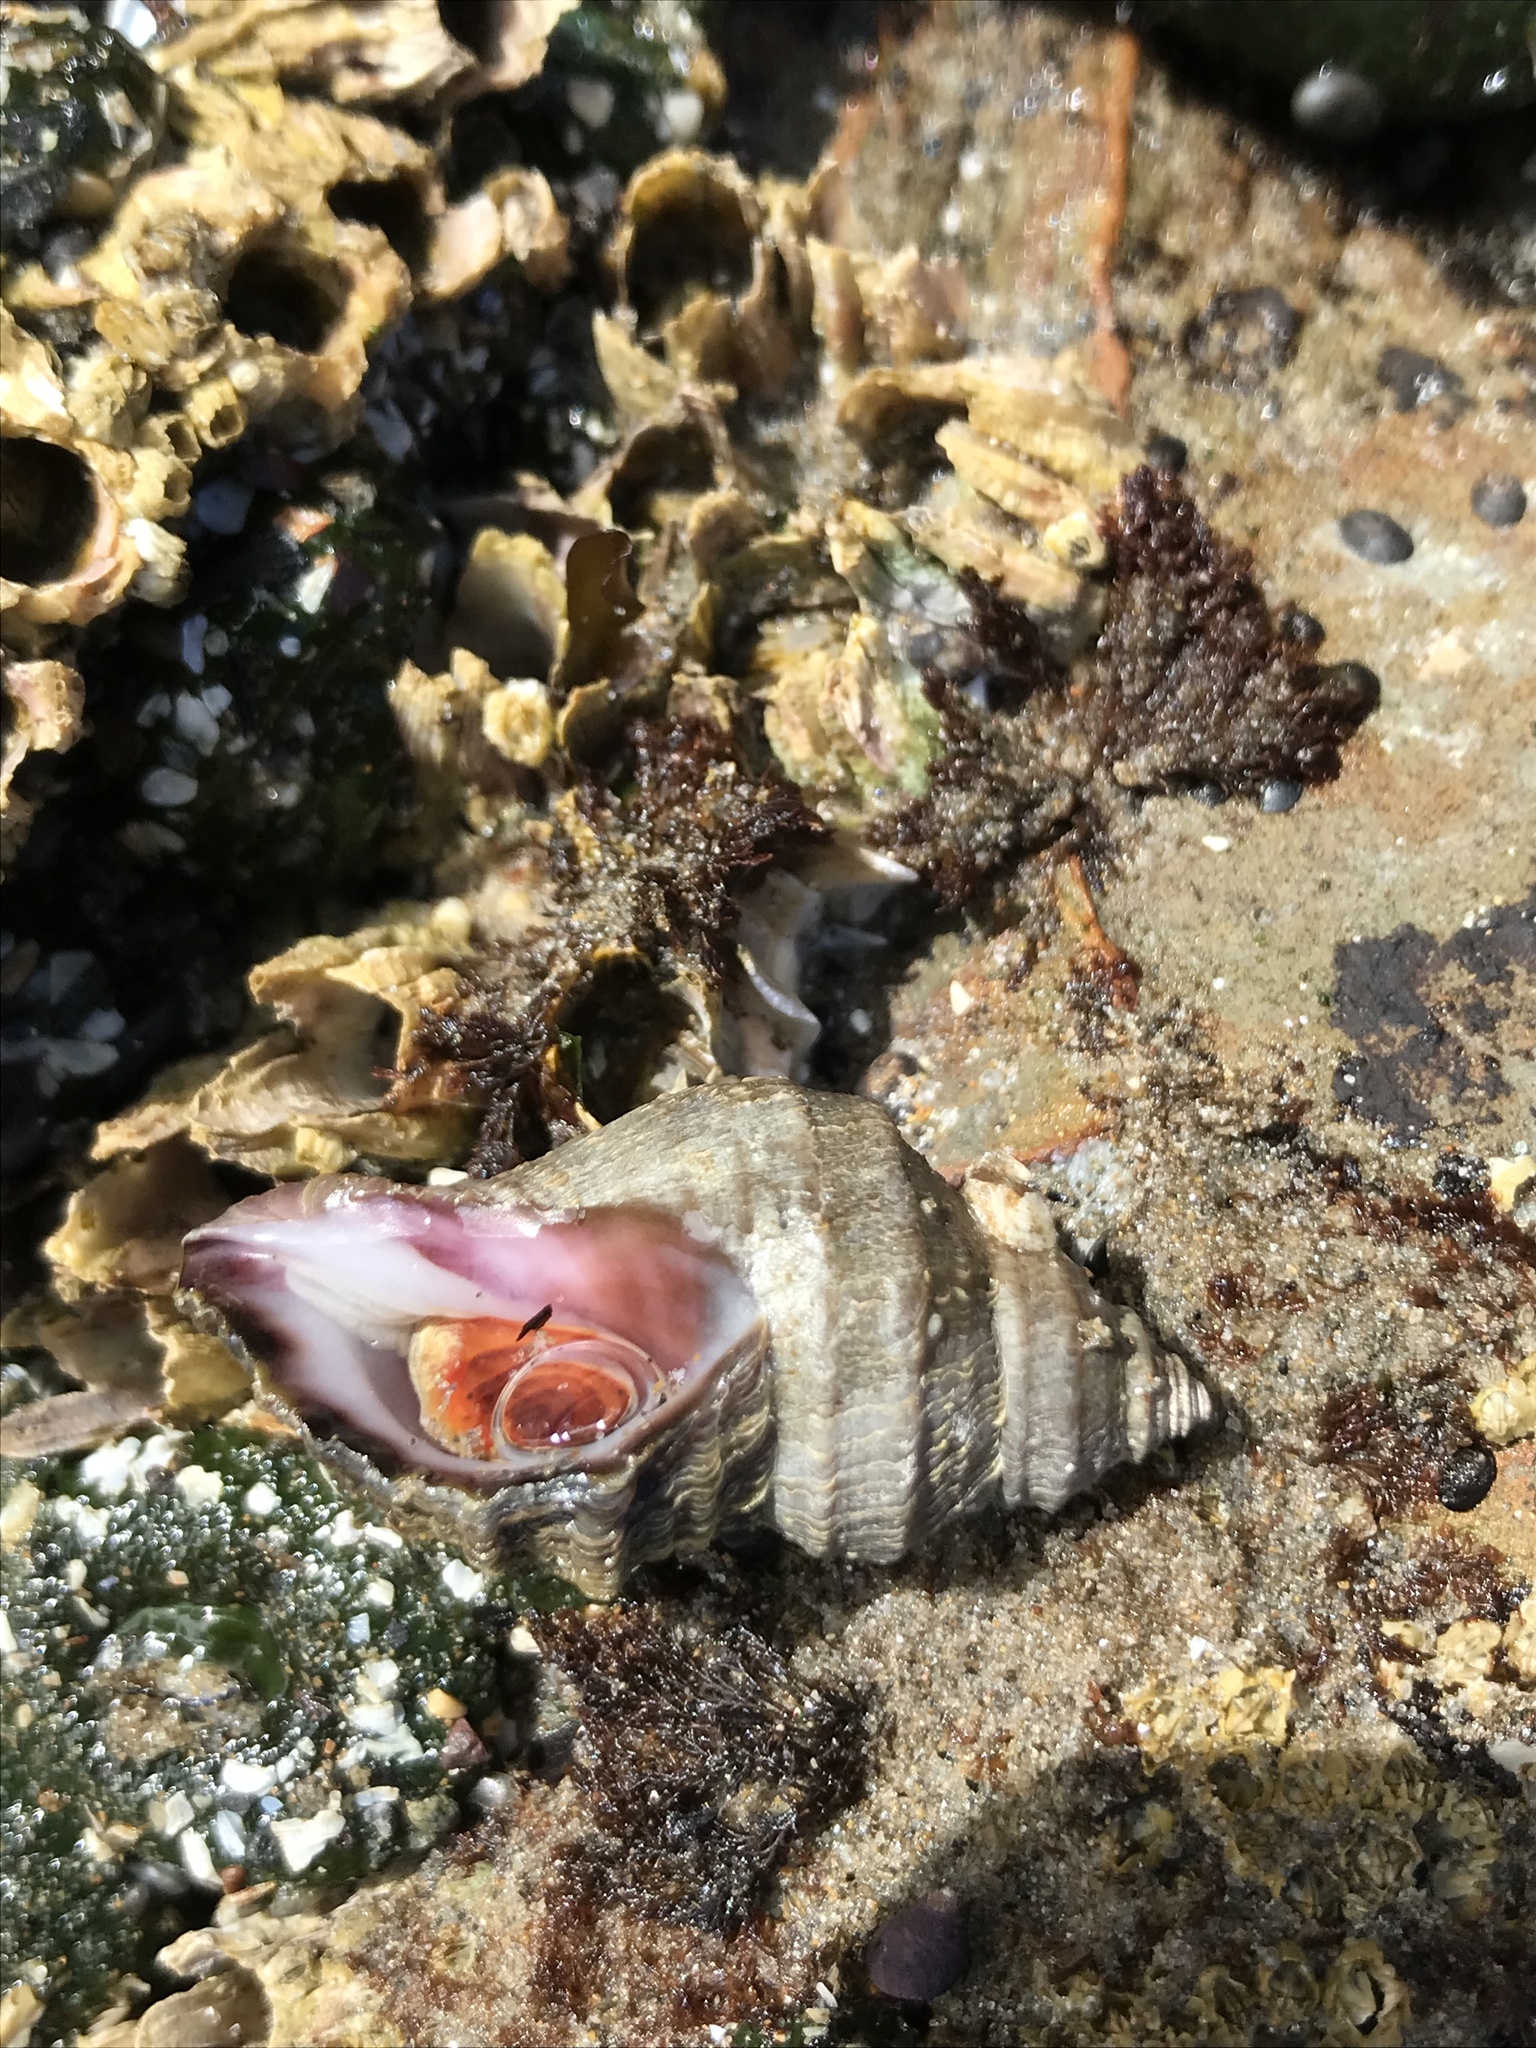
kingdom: Animalia
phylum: Mollusca
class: Gastropoda
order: Neogastropoda
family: Muricidae
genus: Nucella
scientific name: Nucella lamellosa
